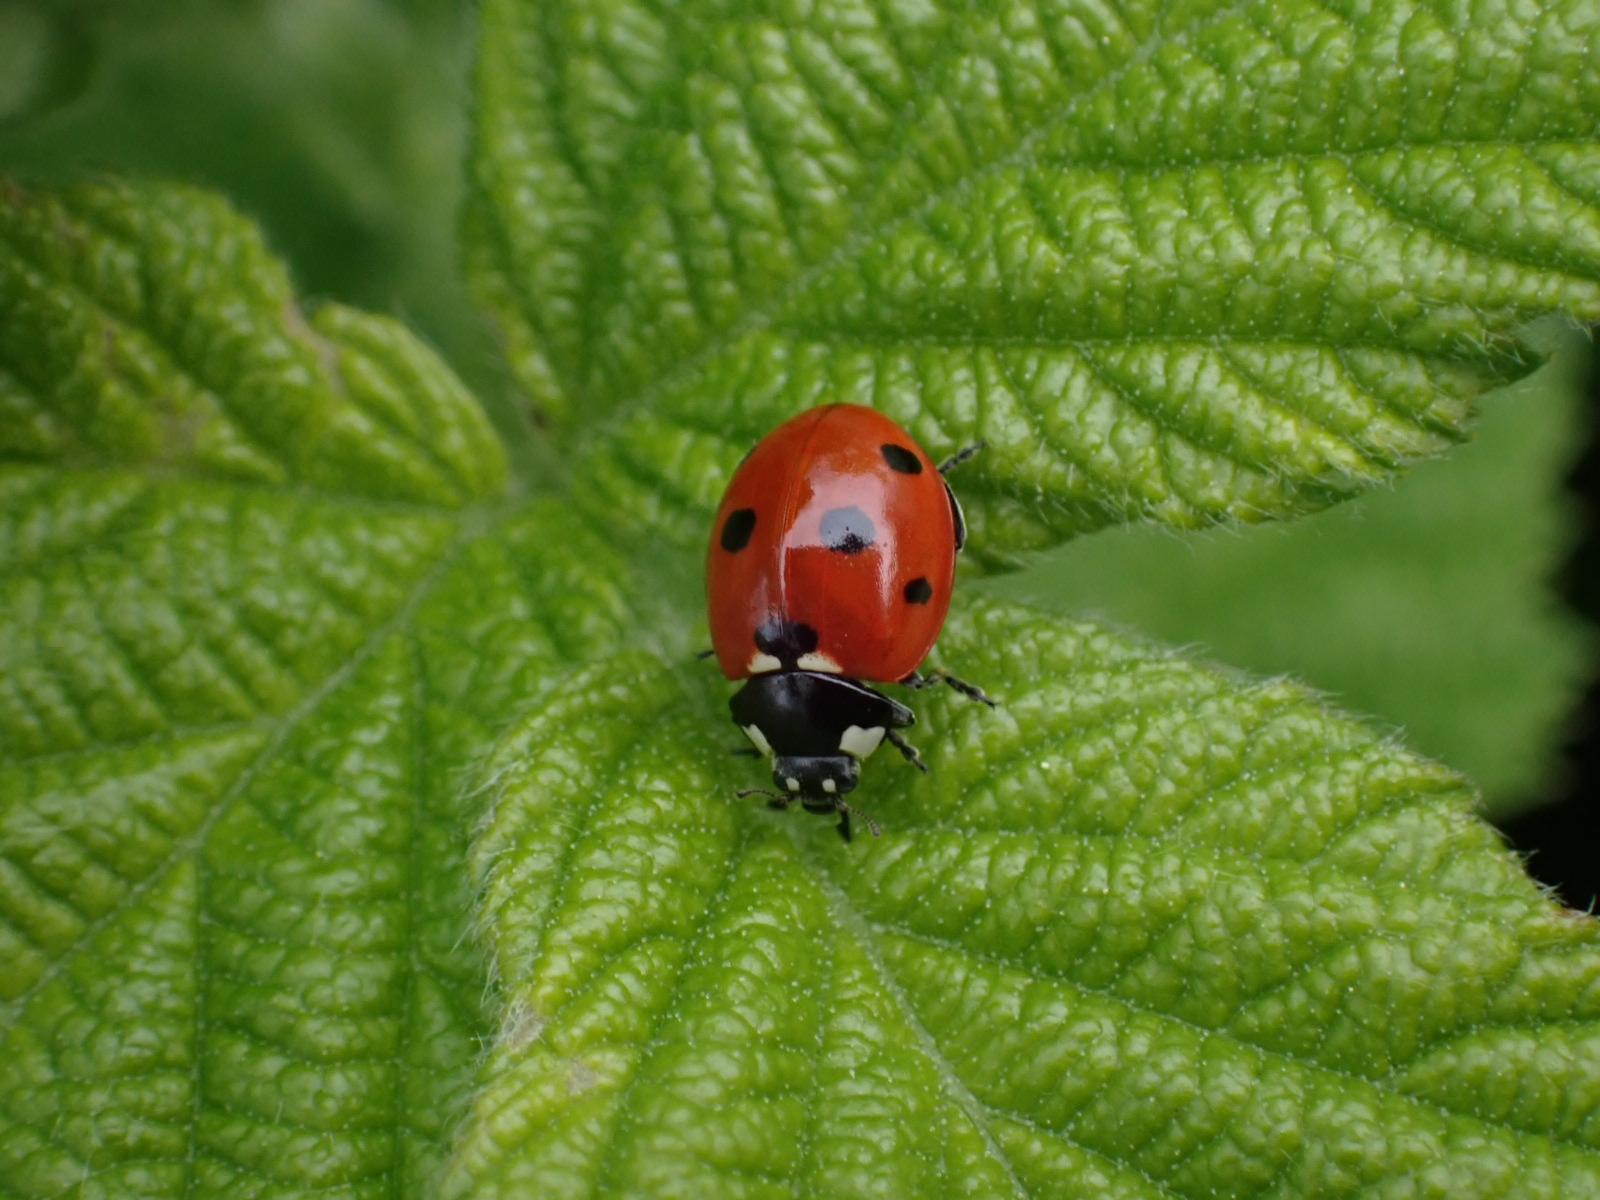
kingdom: Animalia
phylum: Arthropoda
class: Insecta
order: Coleoptera
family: Coccinellidae
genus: Coccinella
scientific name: Coccinella septempunctata
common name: Sevenspotted lady beetle
